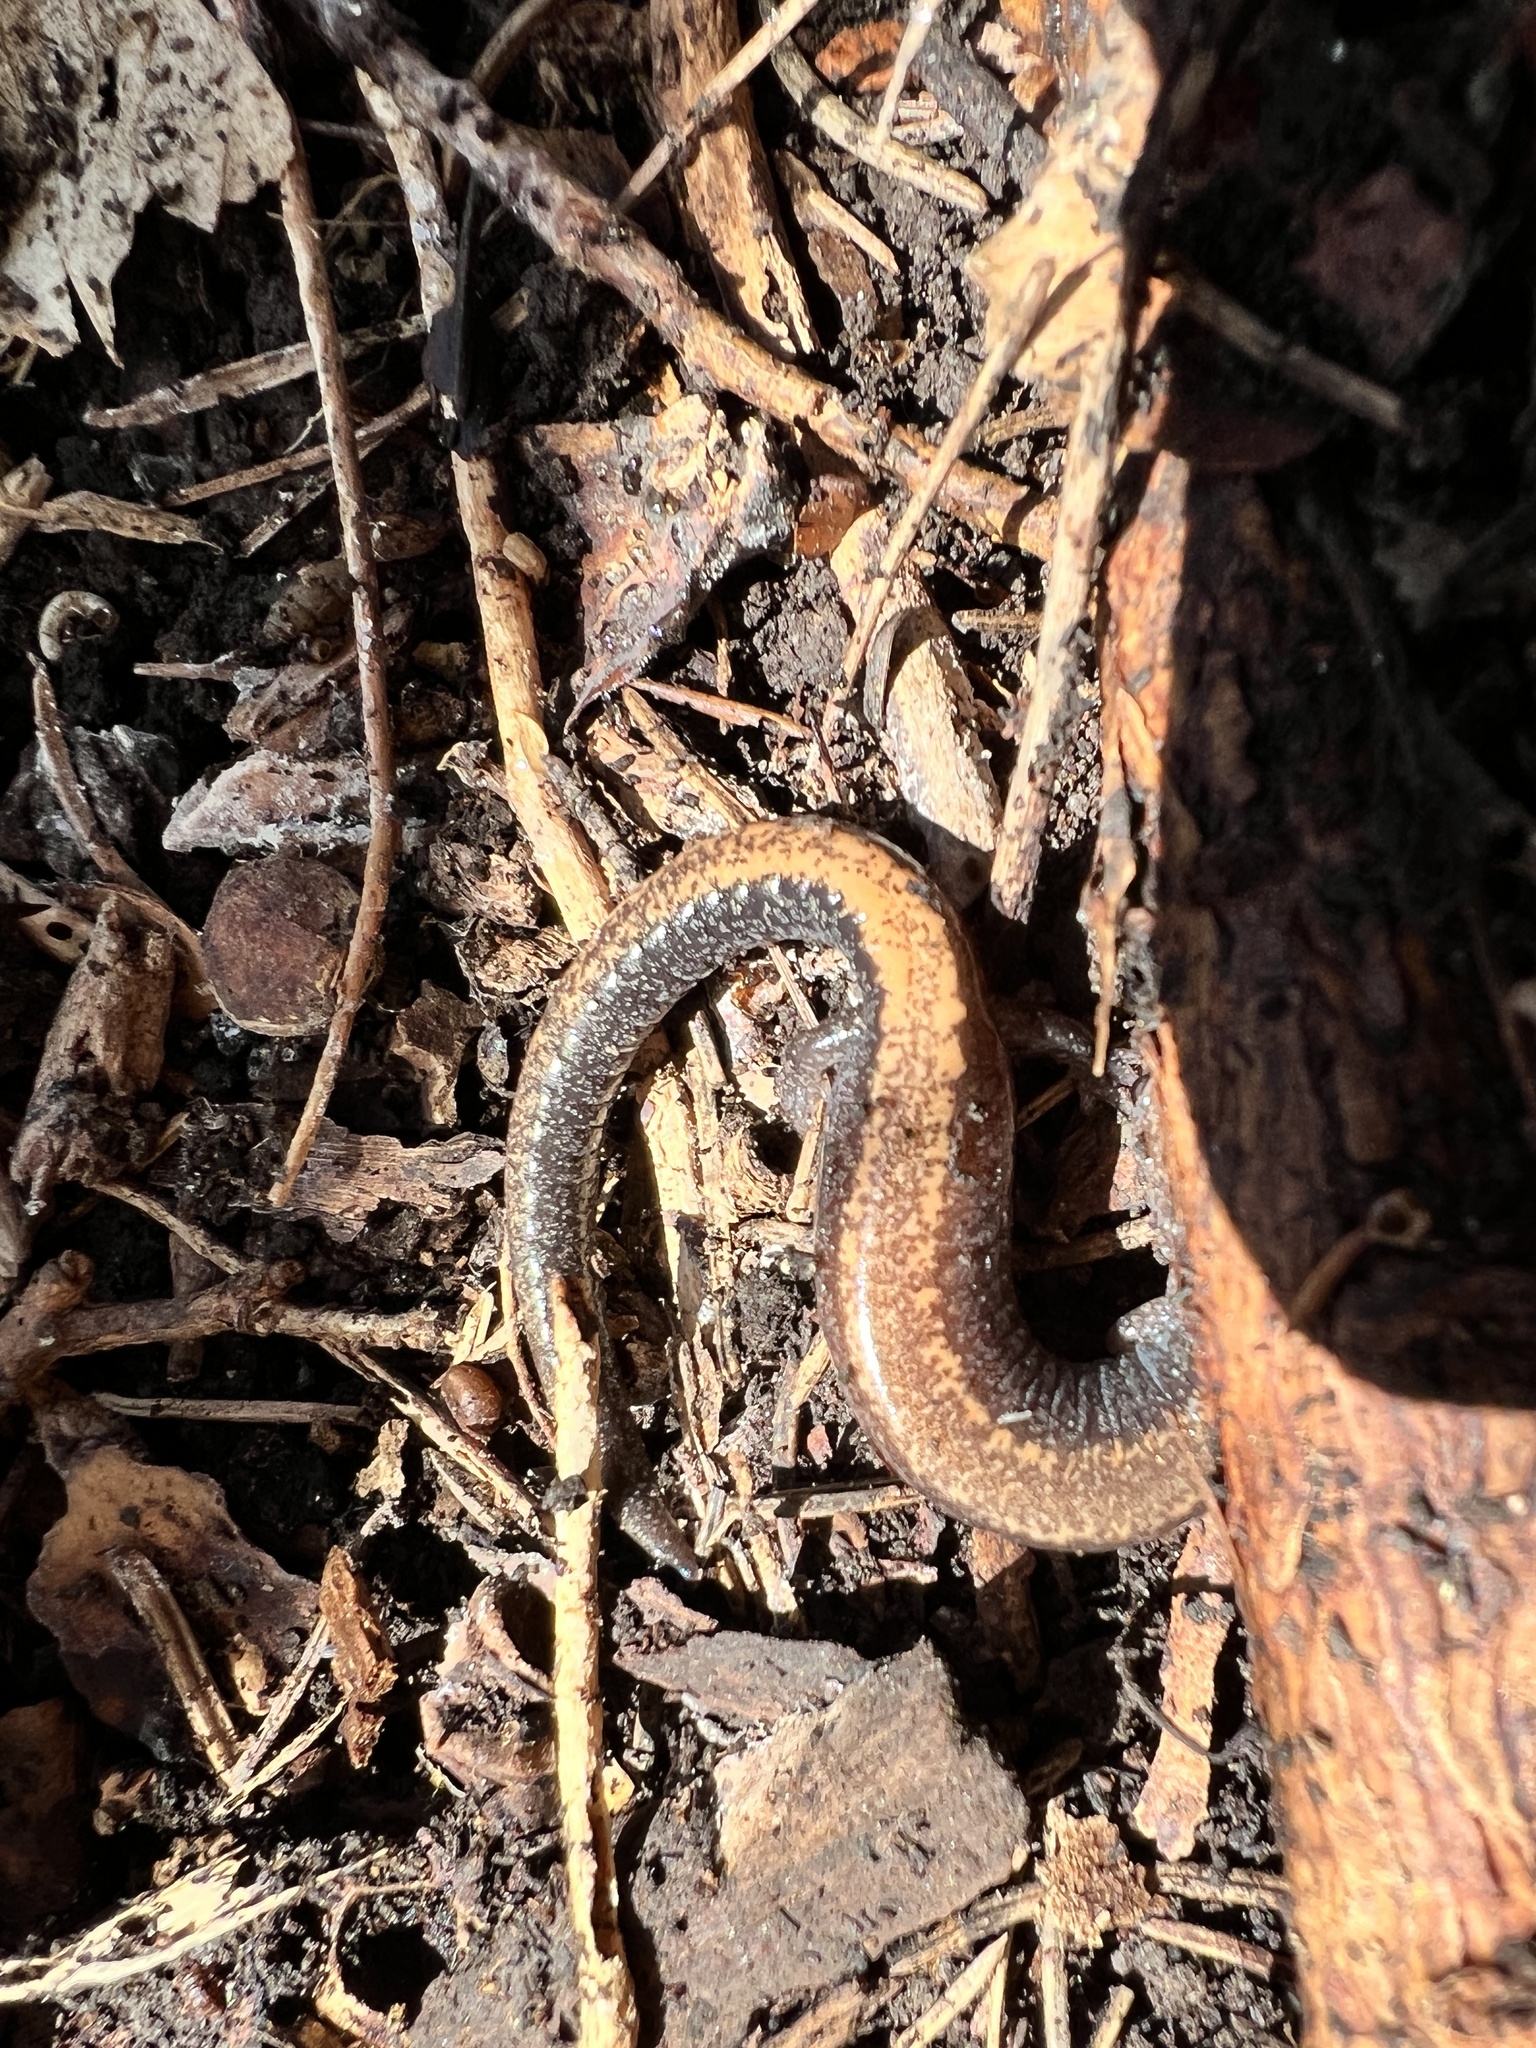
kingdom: Animalia
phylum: Chordata
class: Amphibia
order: Caudata
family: Plethodontidae
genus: Plethodon
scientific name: Plethodon cinereus
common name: Redback salamander
